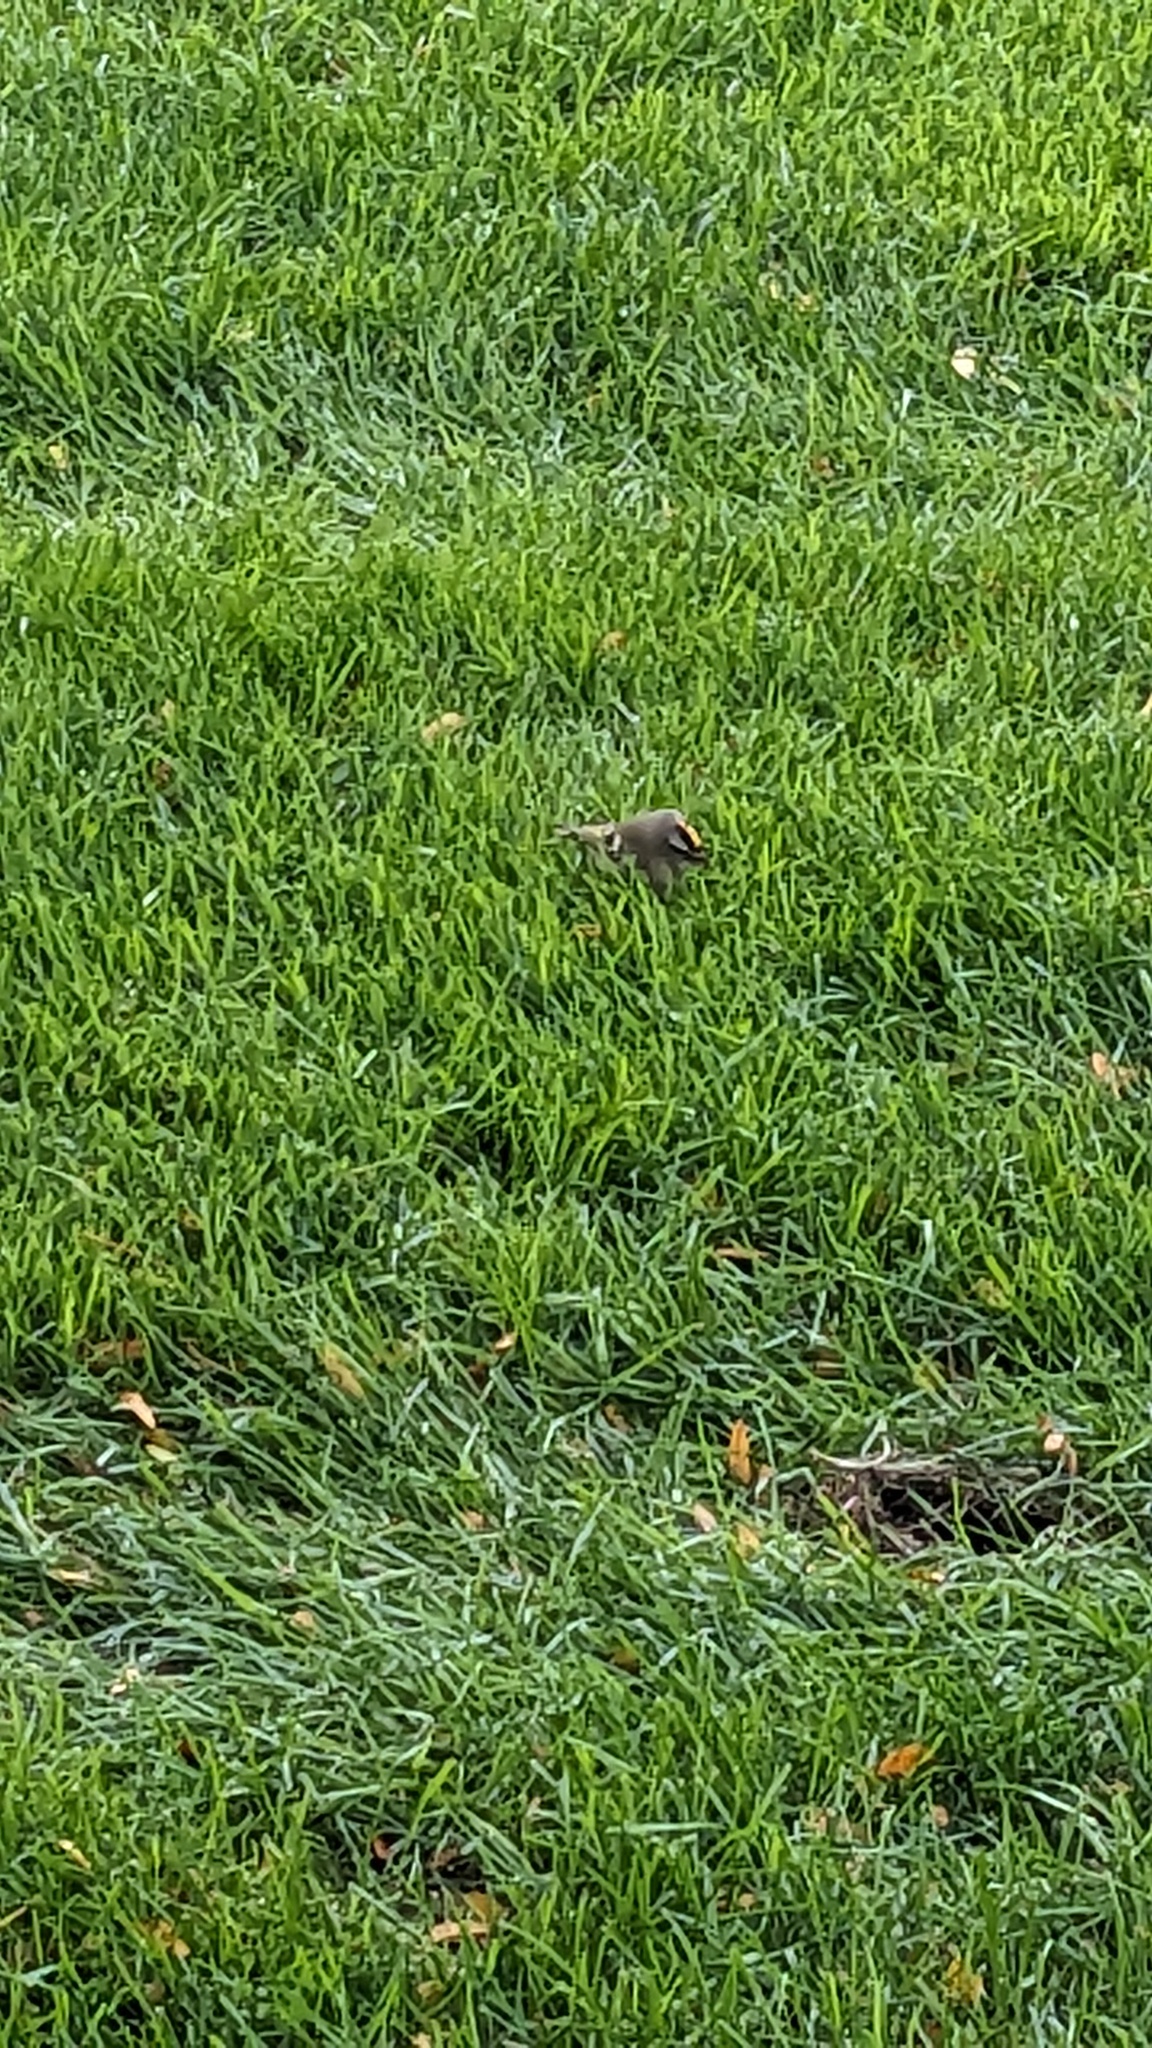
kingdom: Animalia
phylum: Chordata
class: Aves
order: Passeriformes
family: Regulidae
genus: Regulus
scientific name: Regulus satrapa
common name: Golden-crowned kinglet
